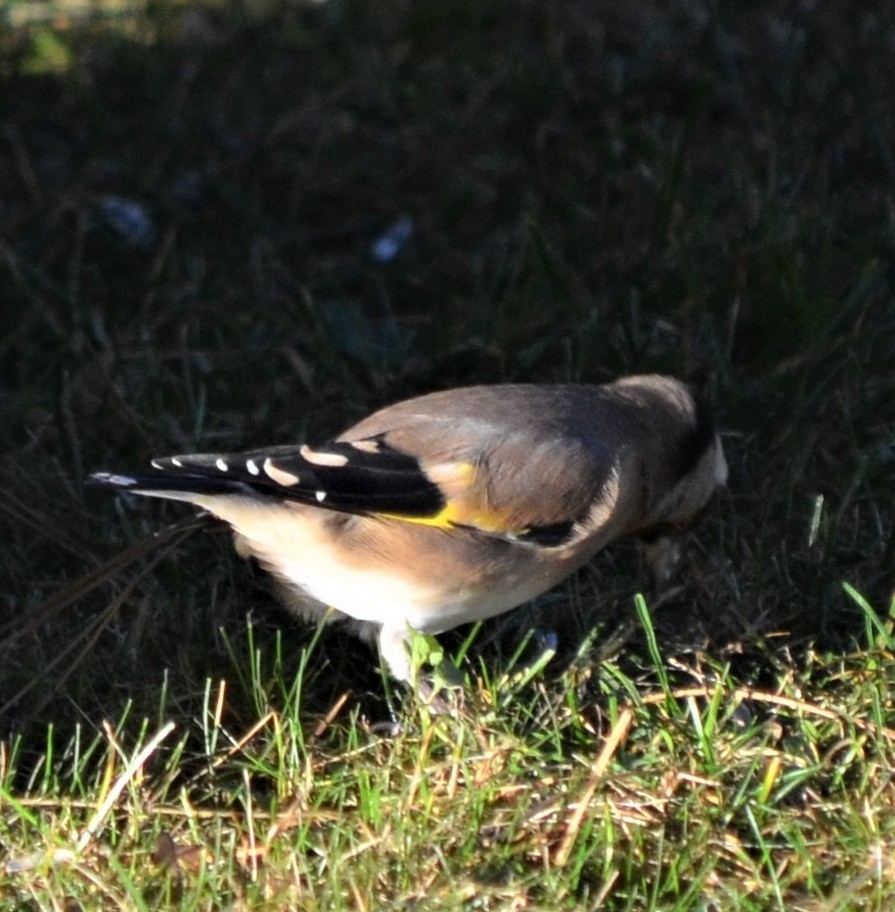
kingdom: Animalia
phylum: Chordata
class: Aves
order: Passeriformes
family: Fringillidae
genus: Carduelis
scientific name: Carduelis carduelis
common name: European goldfinch
